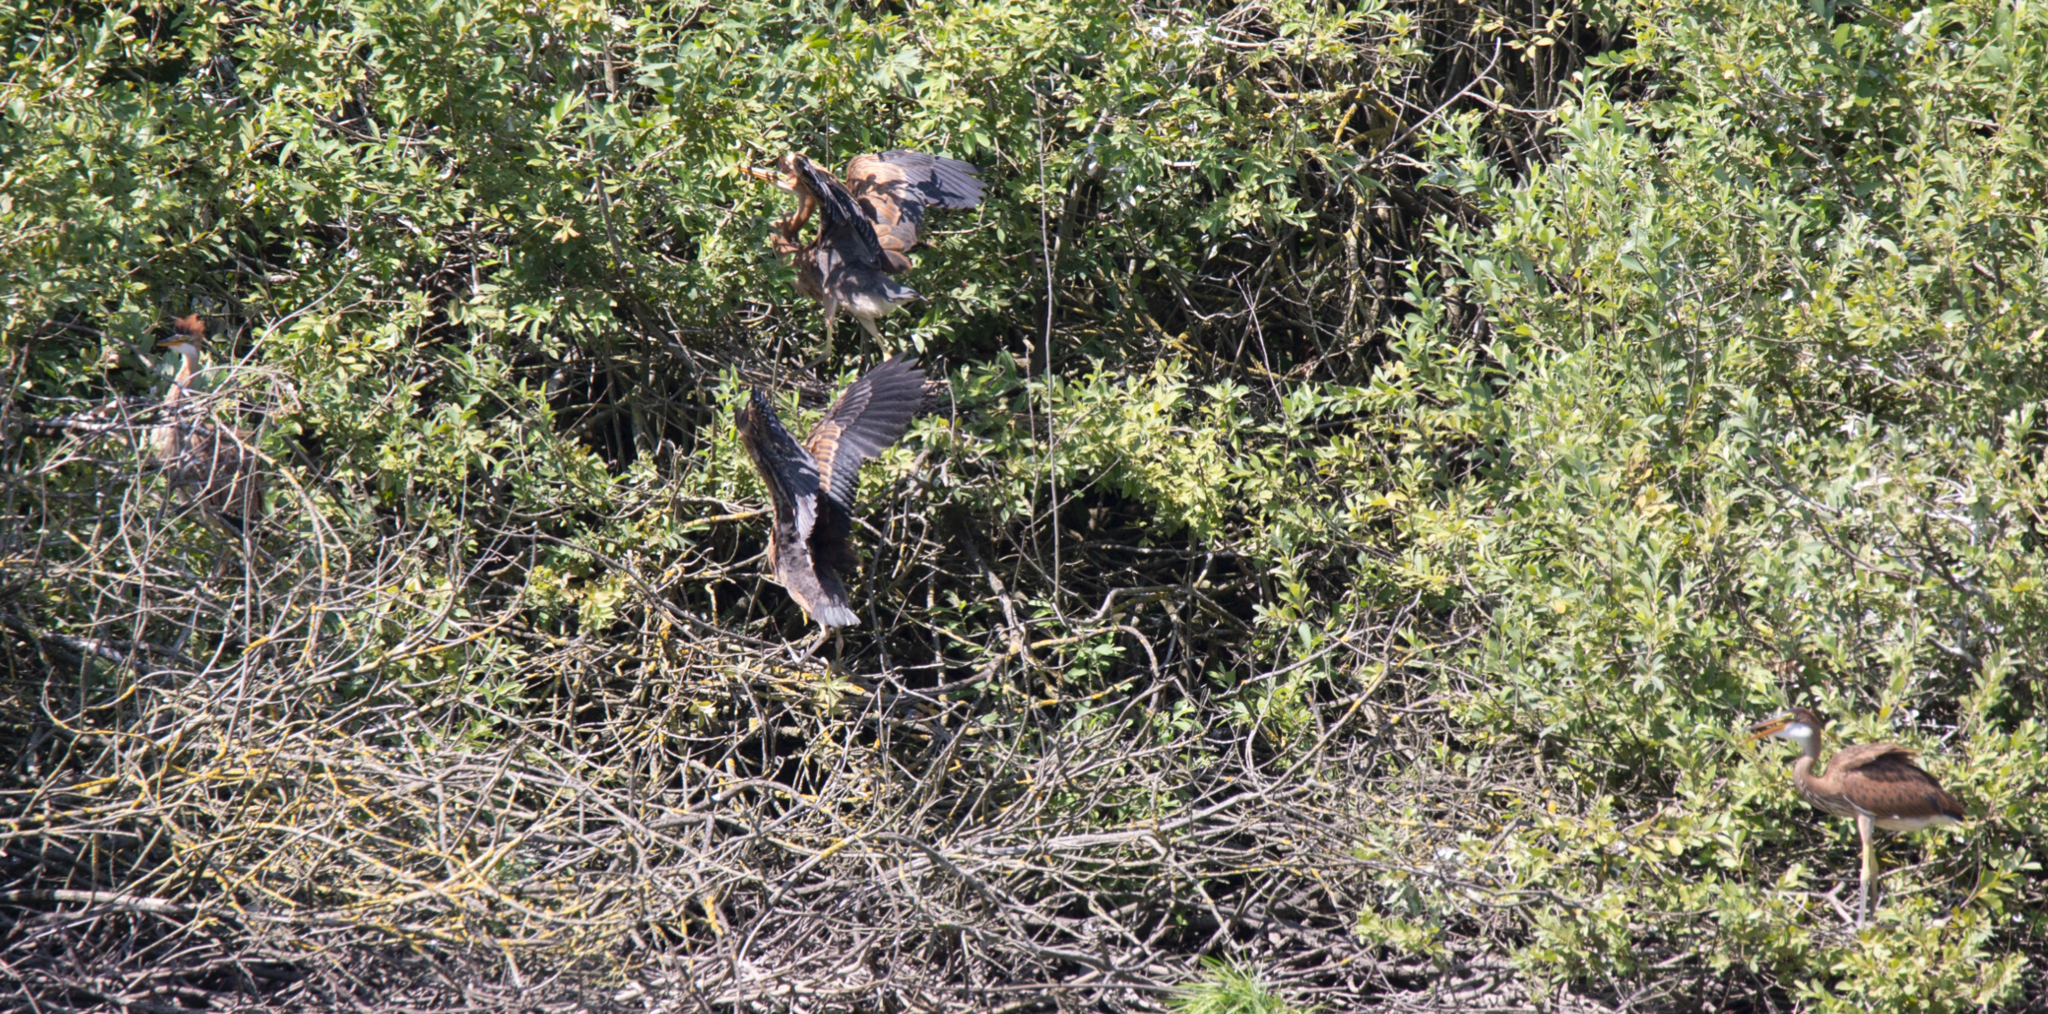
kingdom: Animalia
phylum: Chordata
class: Aves
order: Pelecaniformes
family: Ardeidae
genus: Ardea
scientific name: Ardea purpurea
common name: Purple heron
